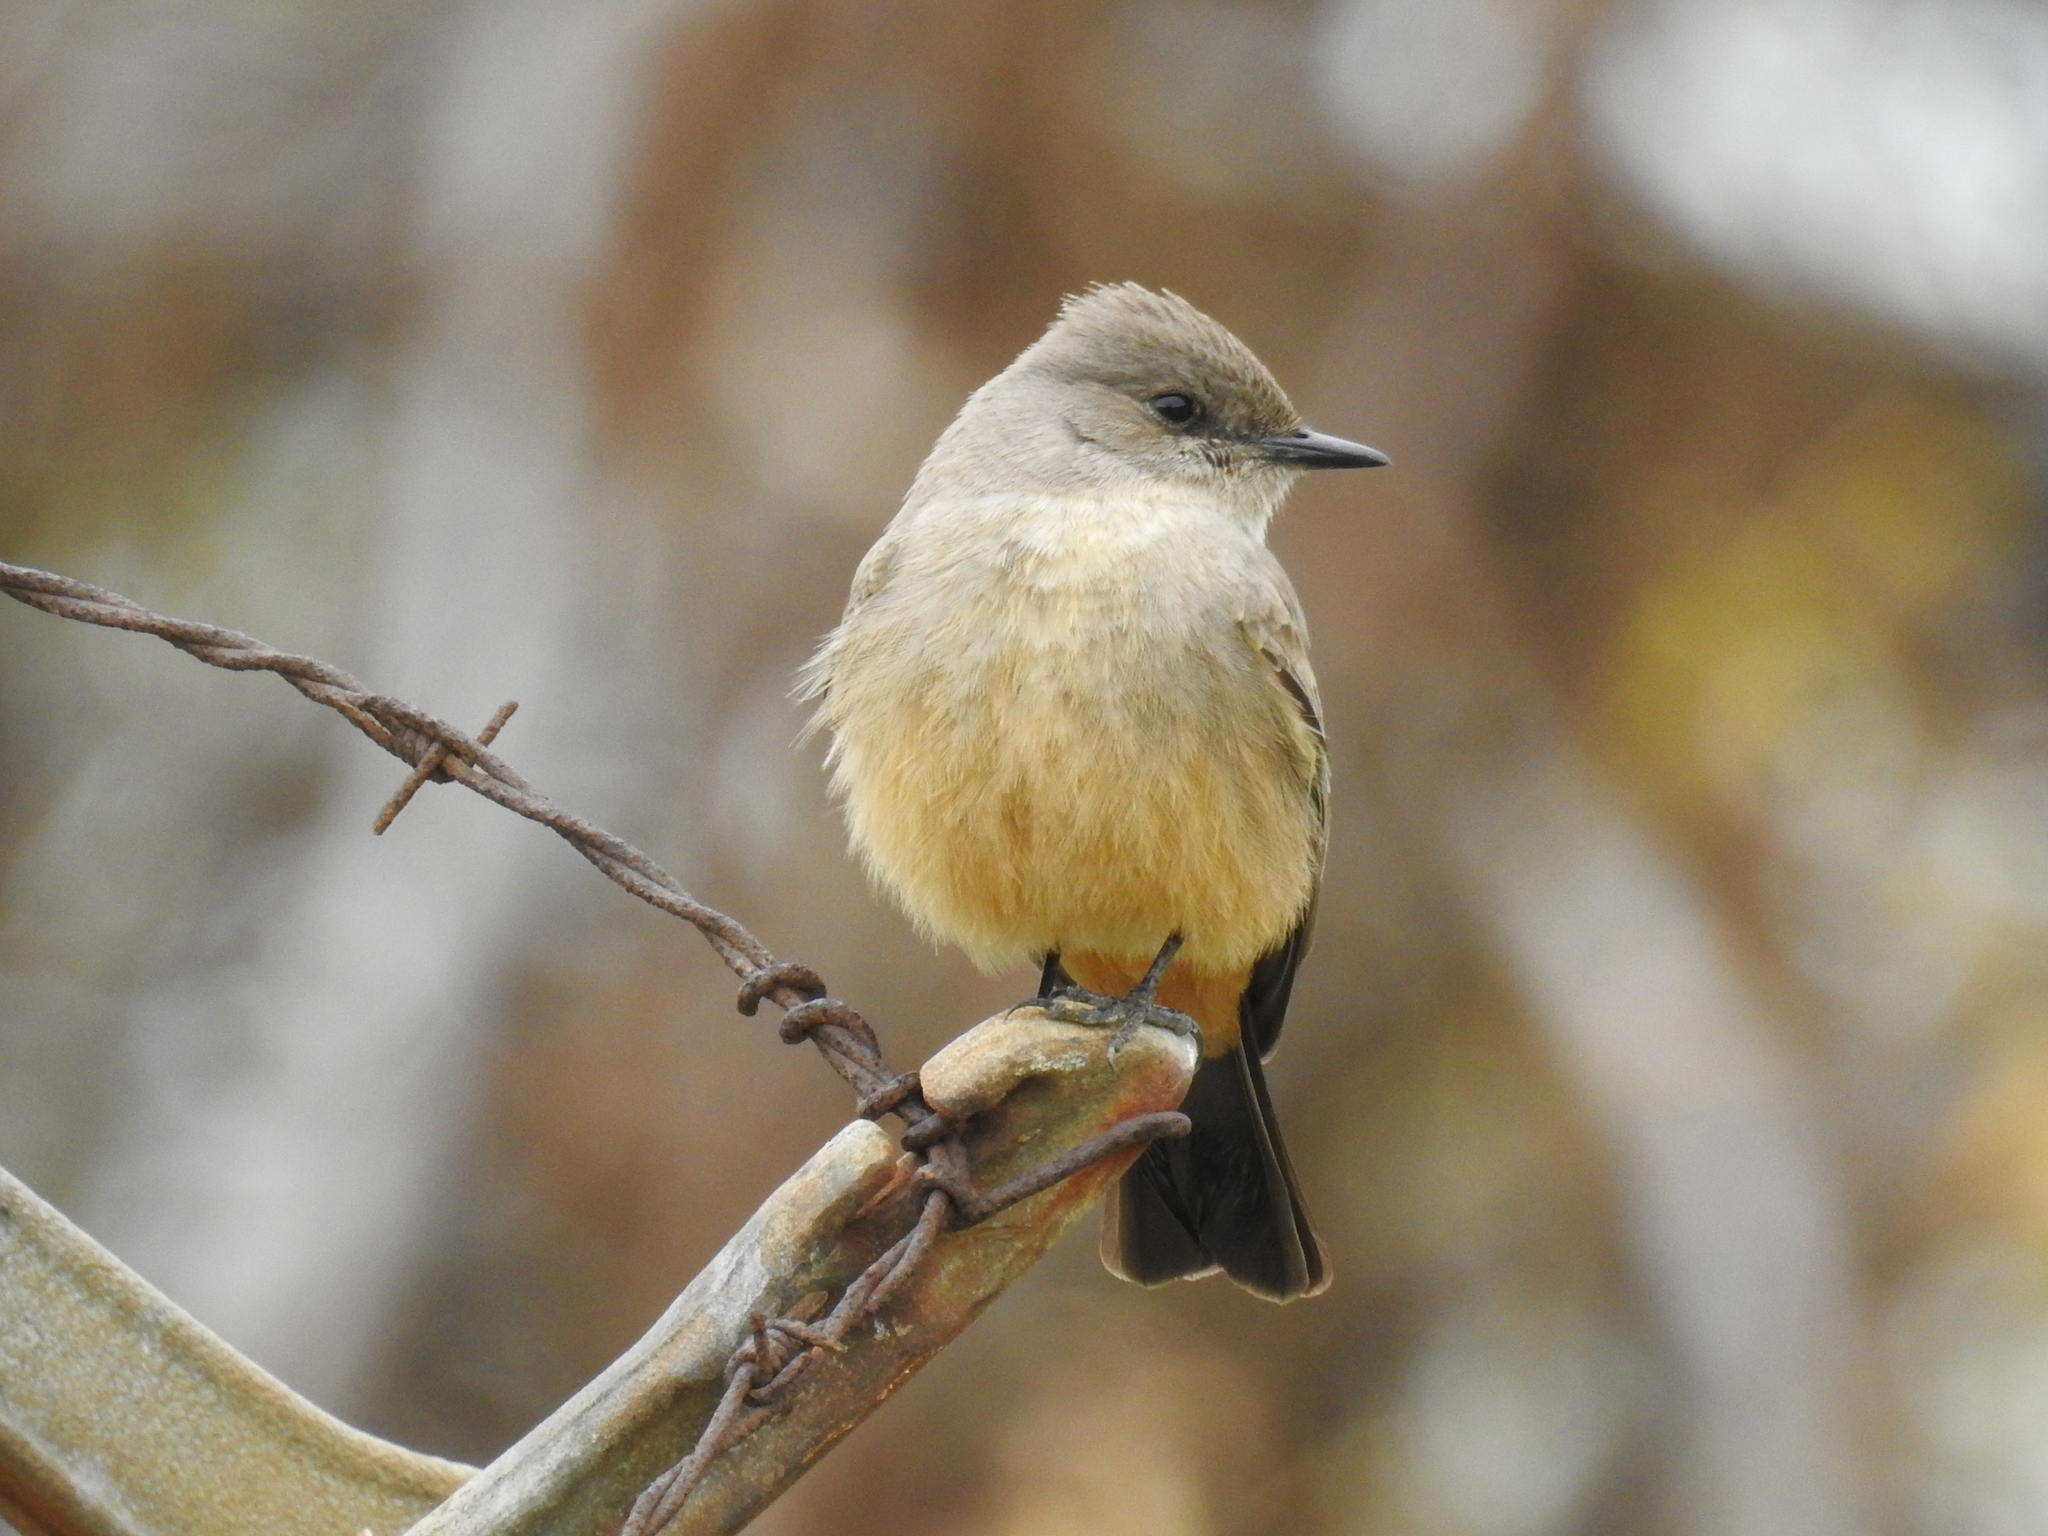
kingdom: Animalia
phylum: Chordata
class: Aves
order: Passeriformes
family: Tyrannidae
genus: Sayornis
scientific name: Sayornis saya
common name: Say's phoebe
